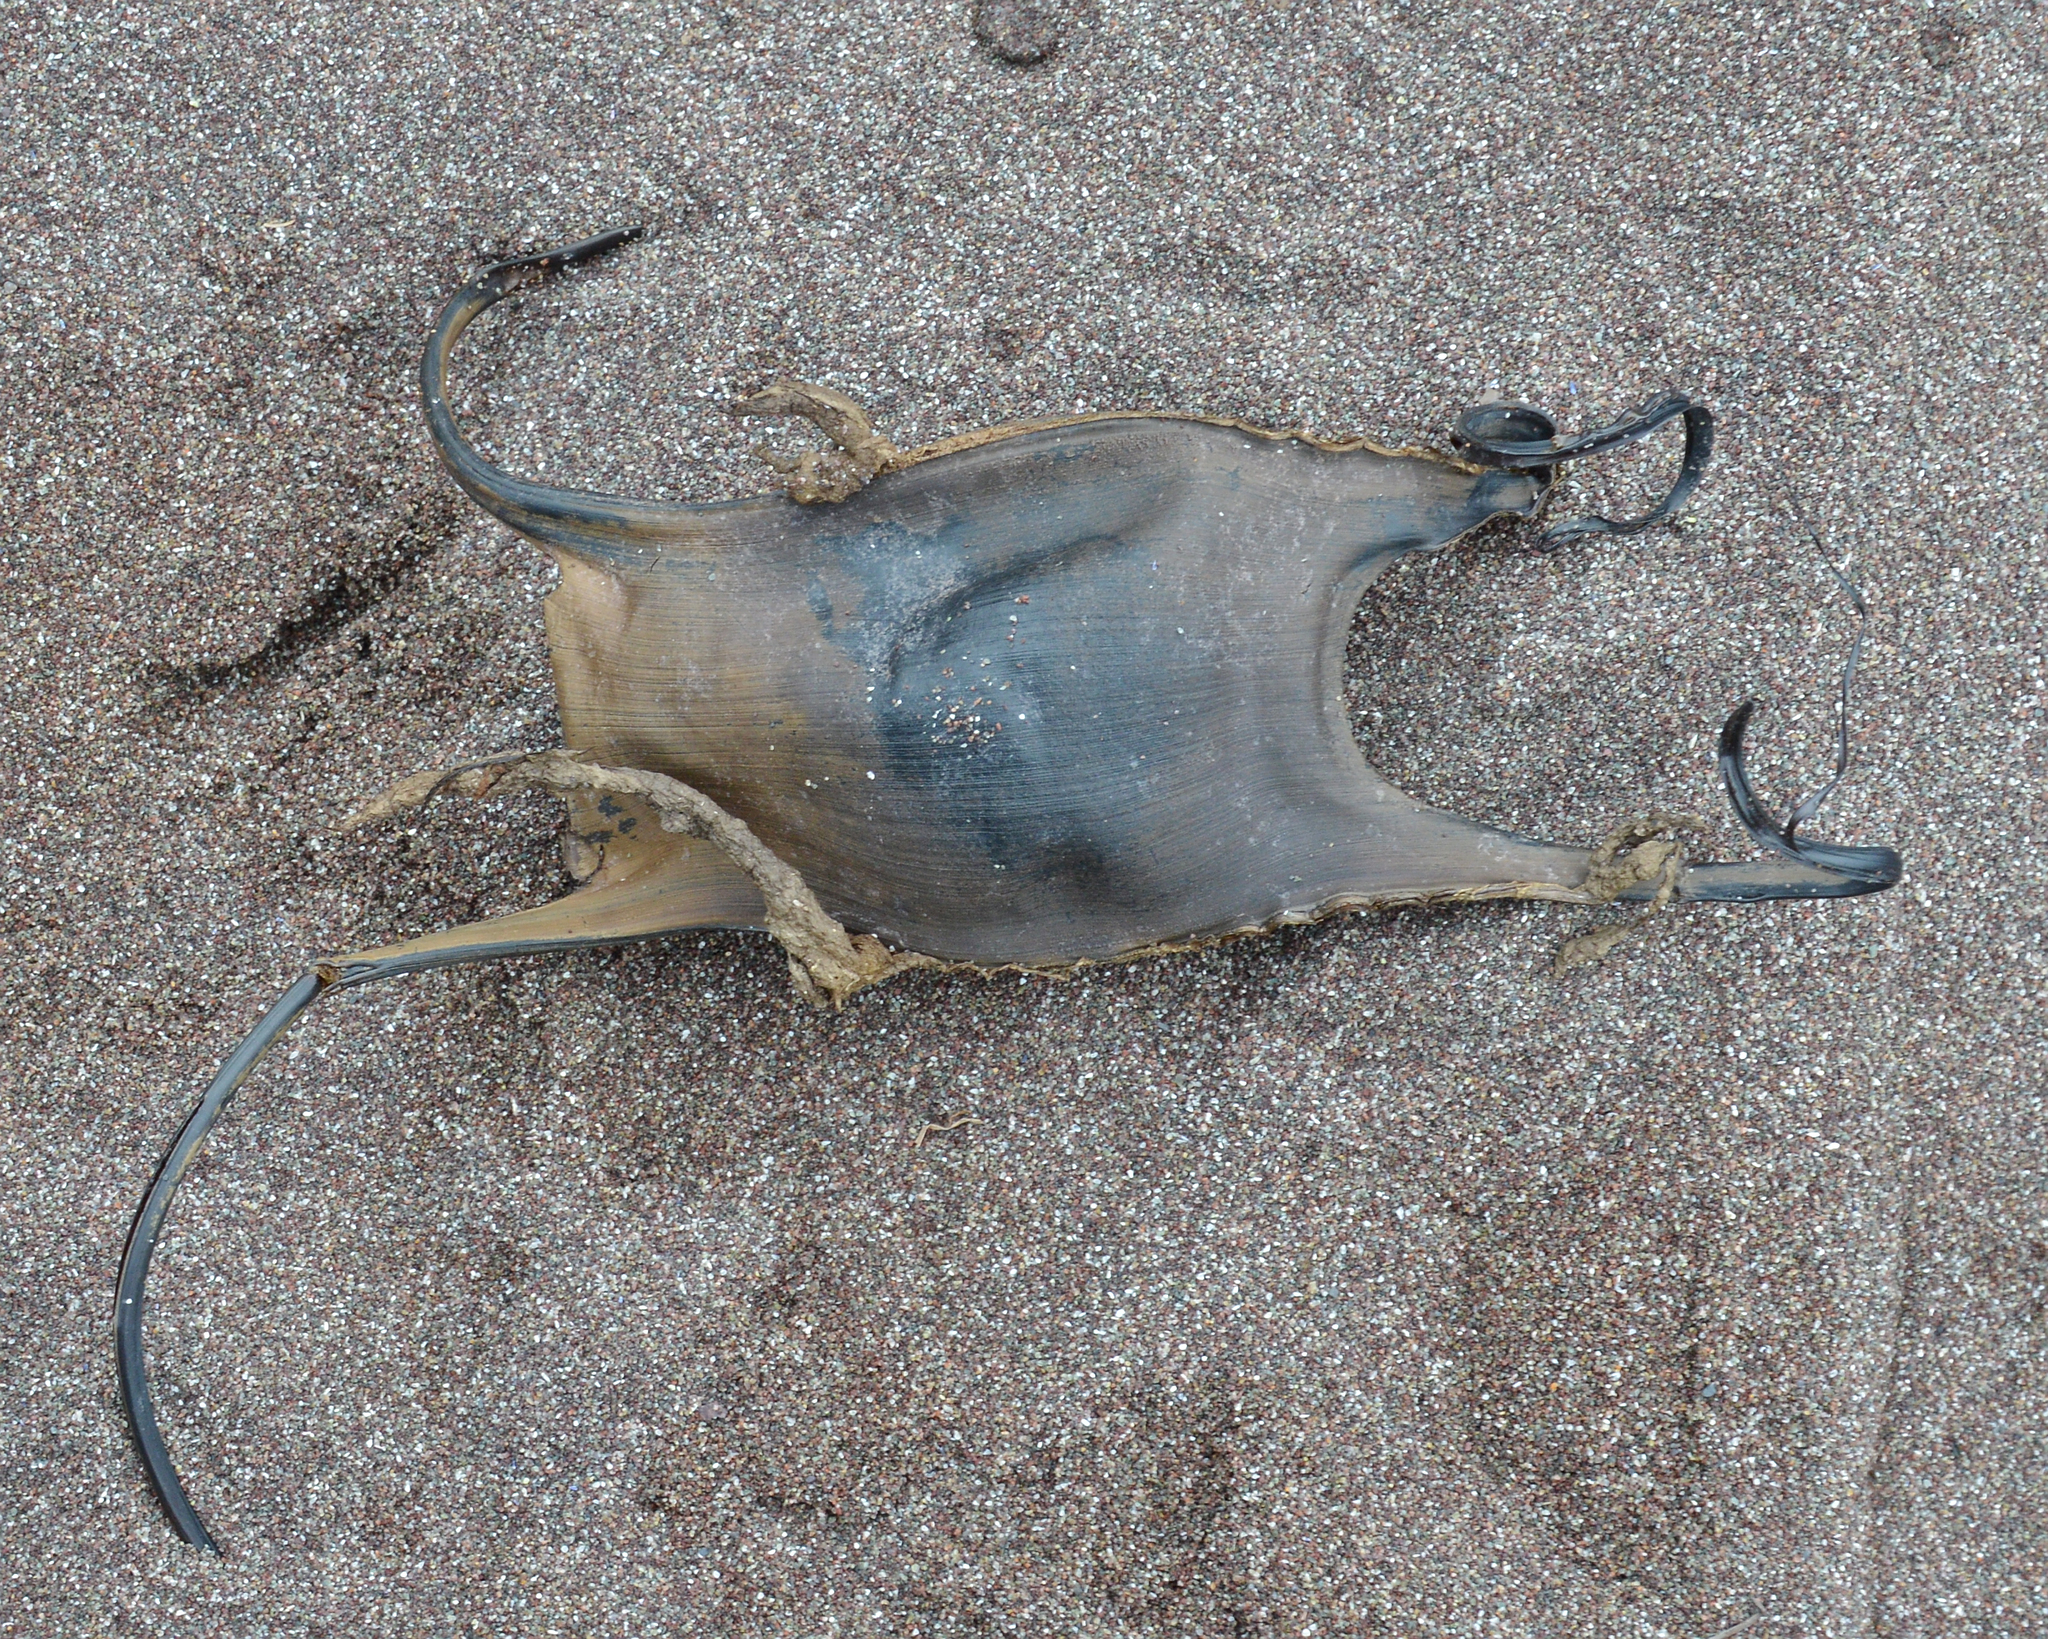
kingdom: Animalia
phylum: Chordata
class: Elasmobranchii
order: Rajiformes
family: Rajidae
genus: Leucoraja
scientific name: Leucoraja ocellata
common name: Winter skate
